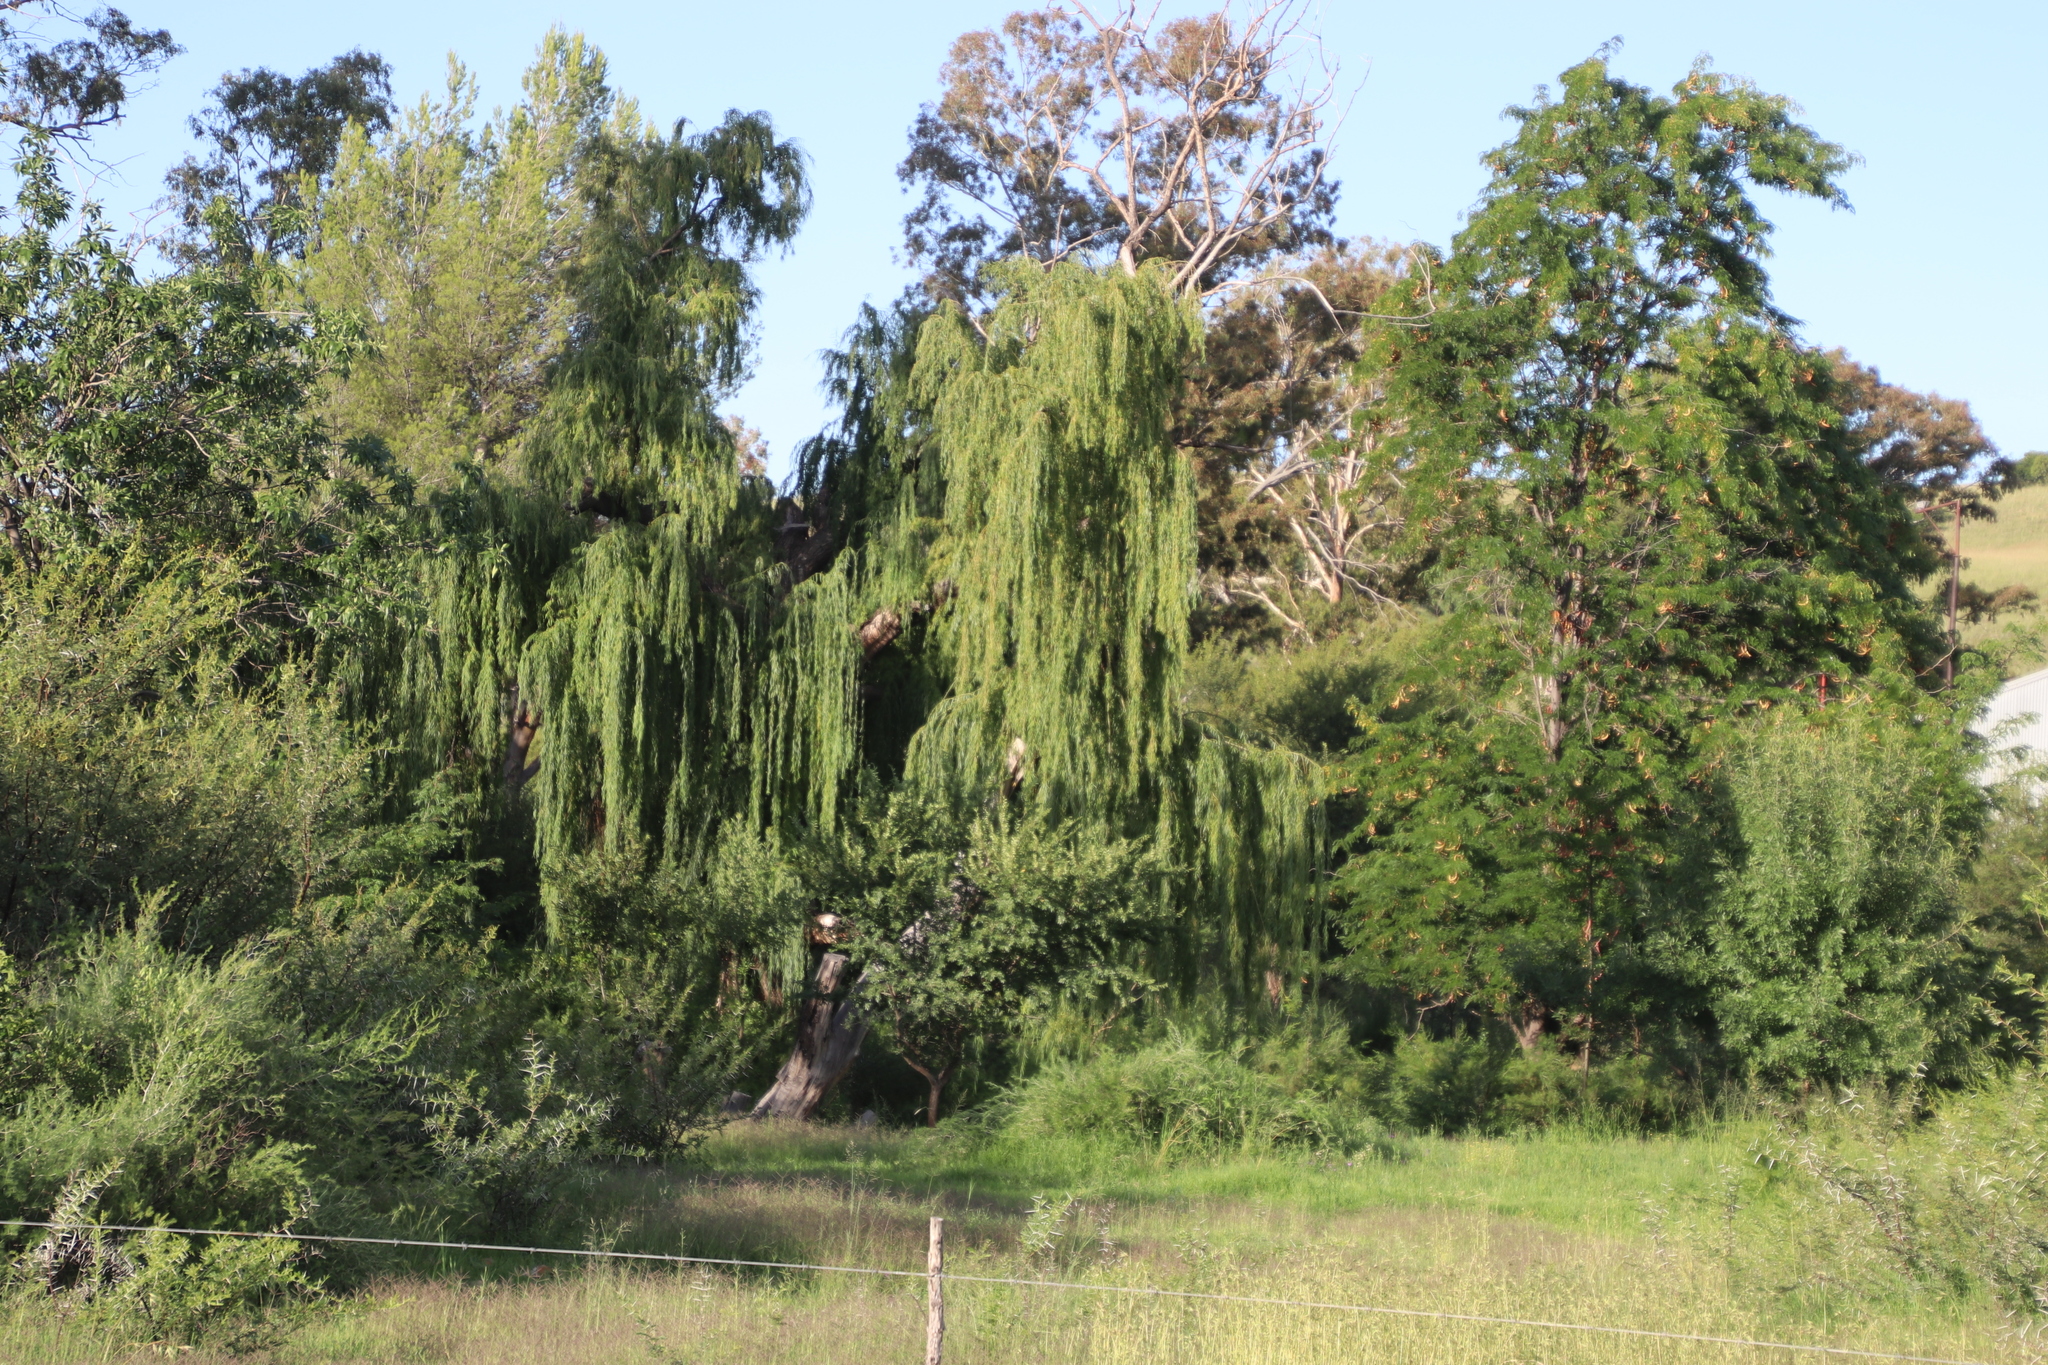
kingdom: Plantae
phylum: Tracheophyta
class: Magnoliopsida
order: Malpighiales
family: Salicaceae
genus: Salix
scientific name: Salix babylonica
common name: Weeping willow
